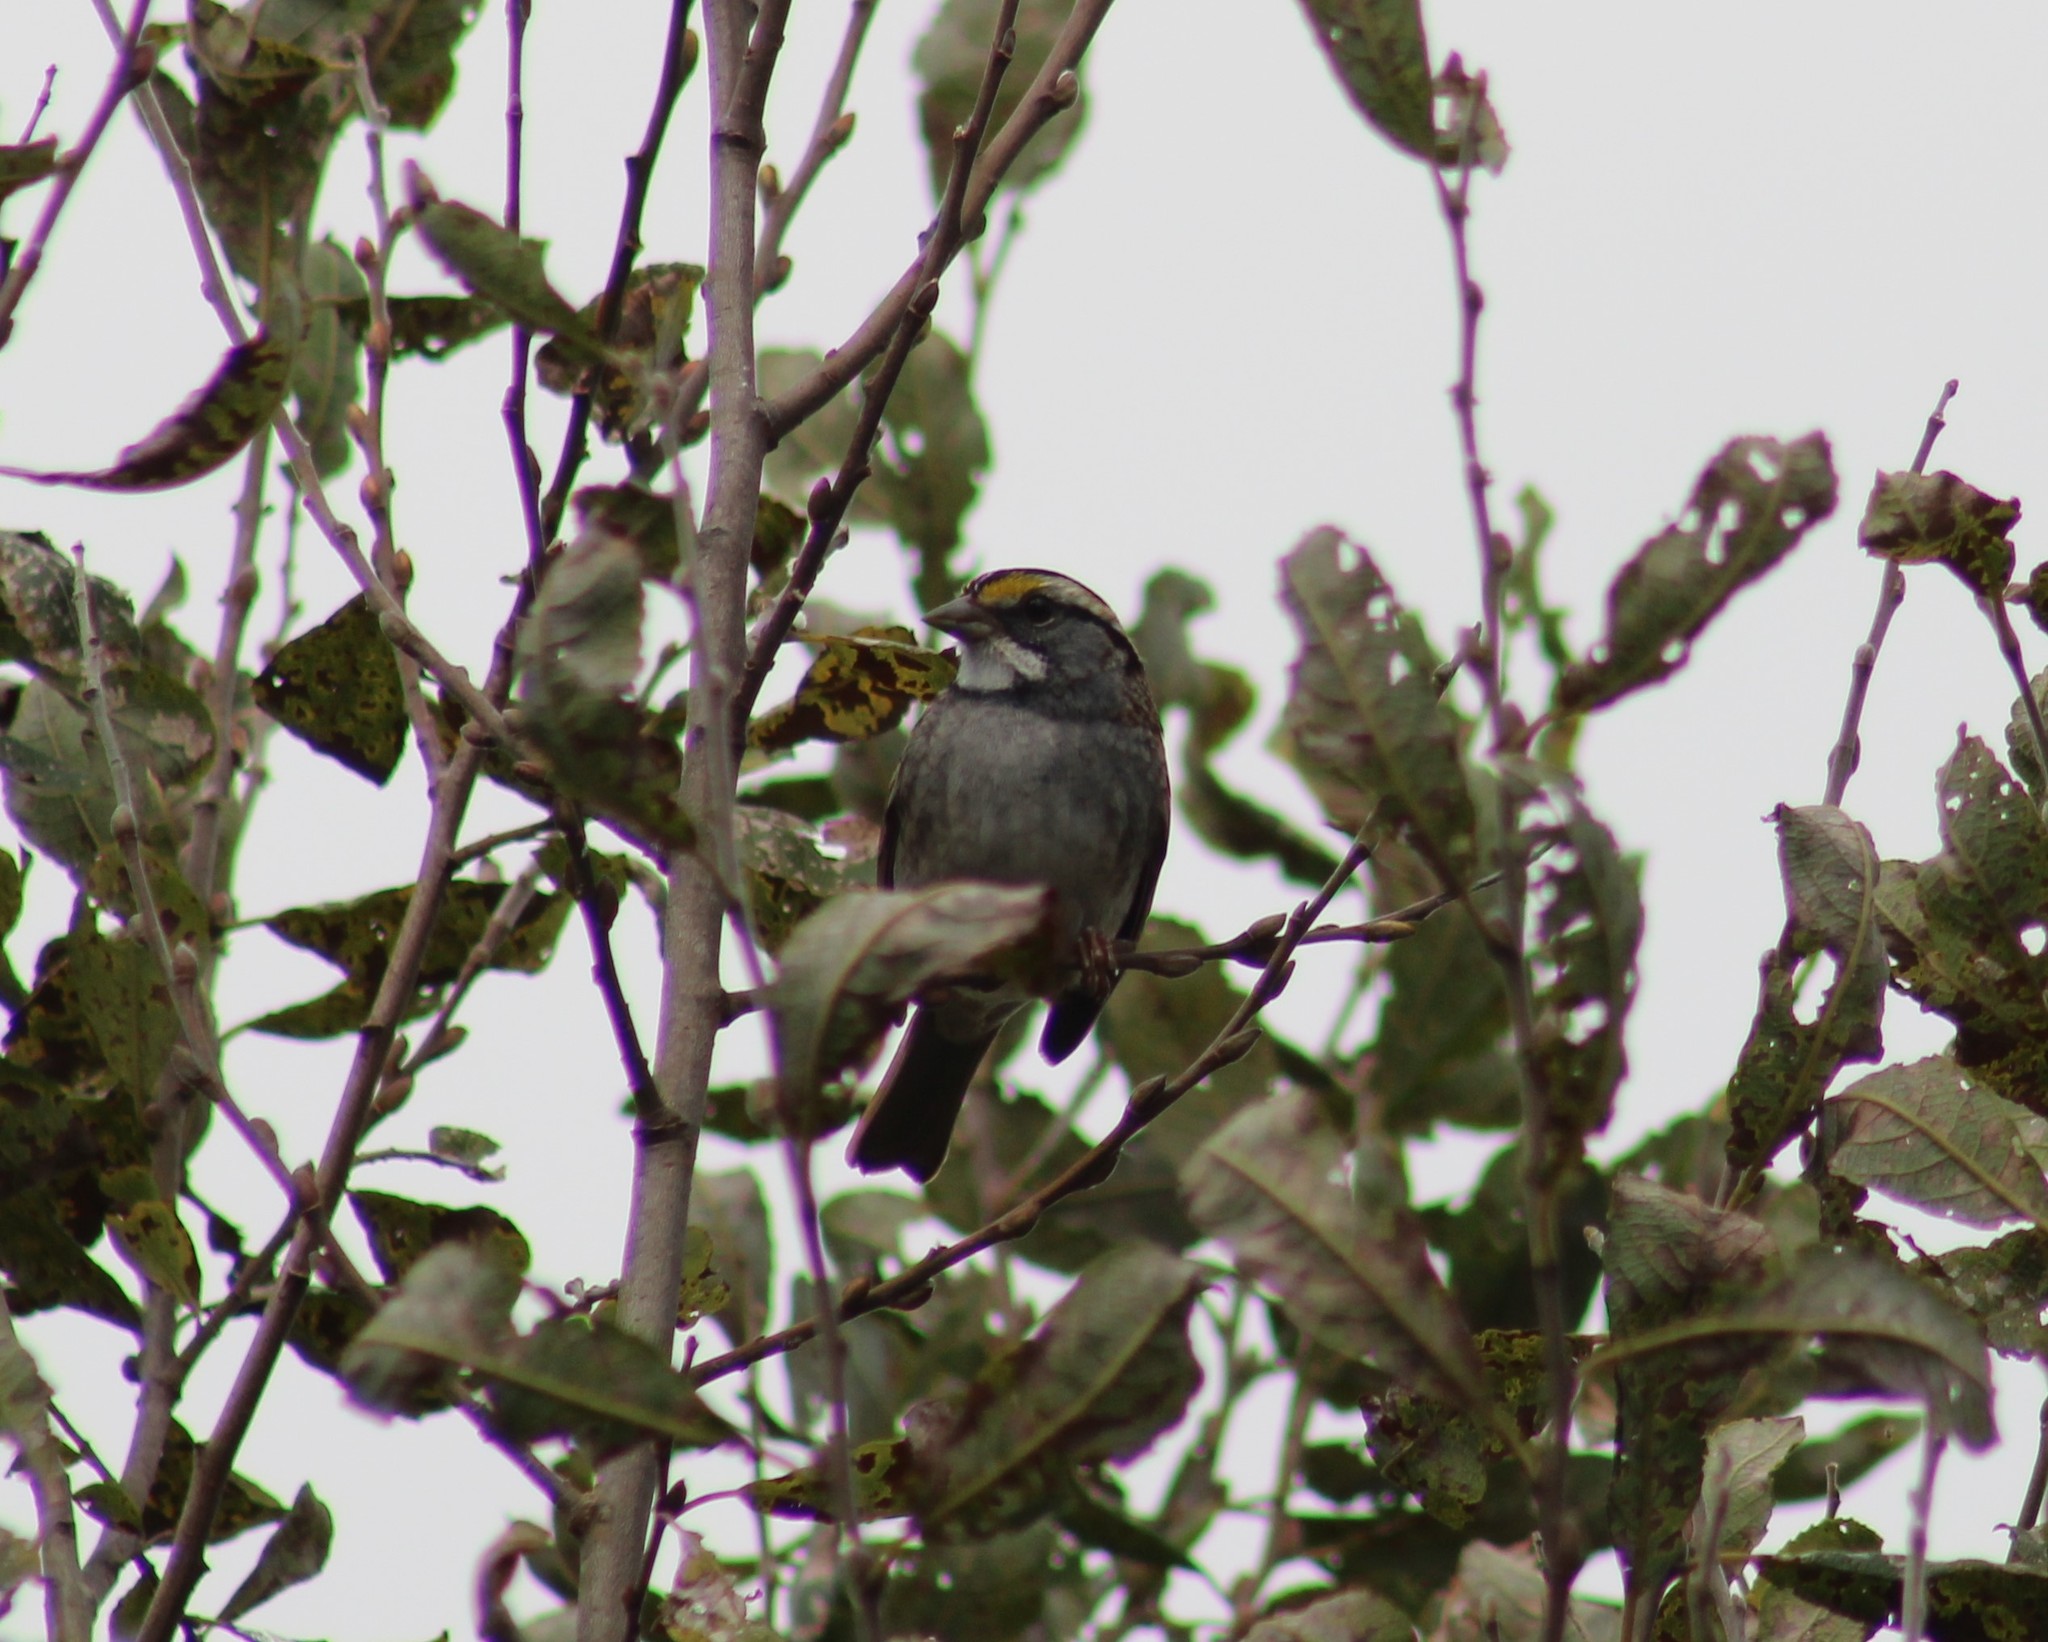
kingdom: Animalia
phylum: Chordata
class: Aves
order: Passeriformes
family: Passerellidae
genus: Zonotrichia
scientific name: Zonotrichia albicollis
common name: White-throated sparrow
